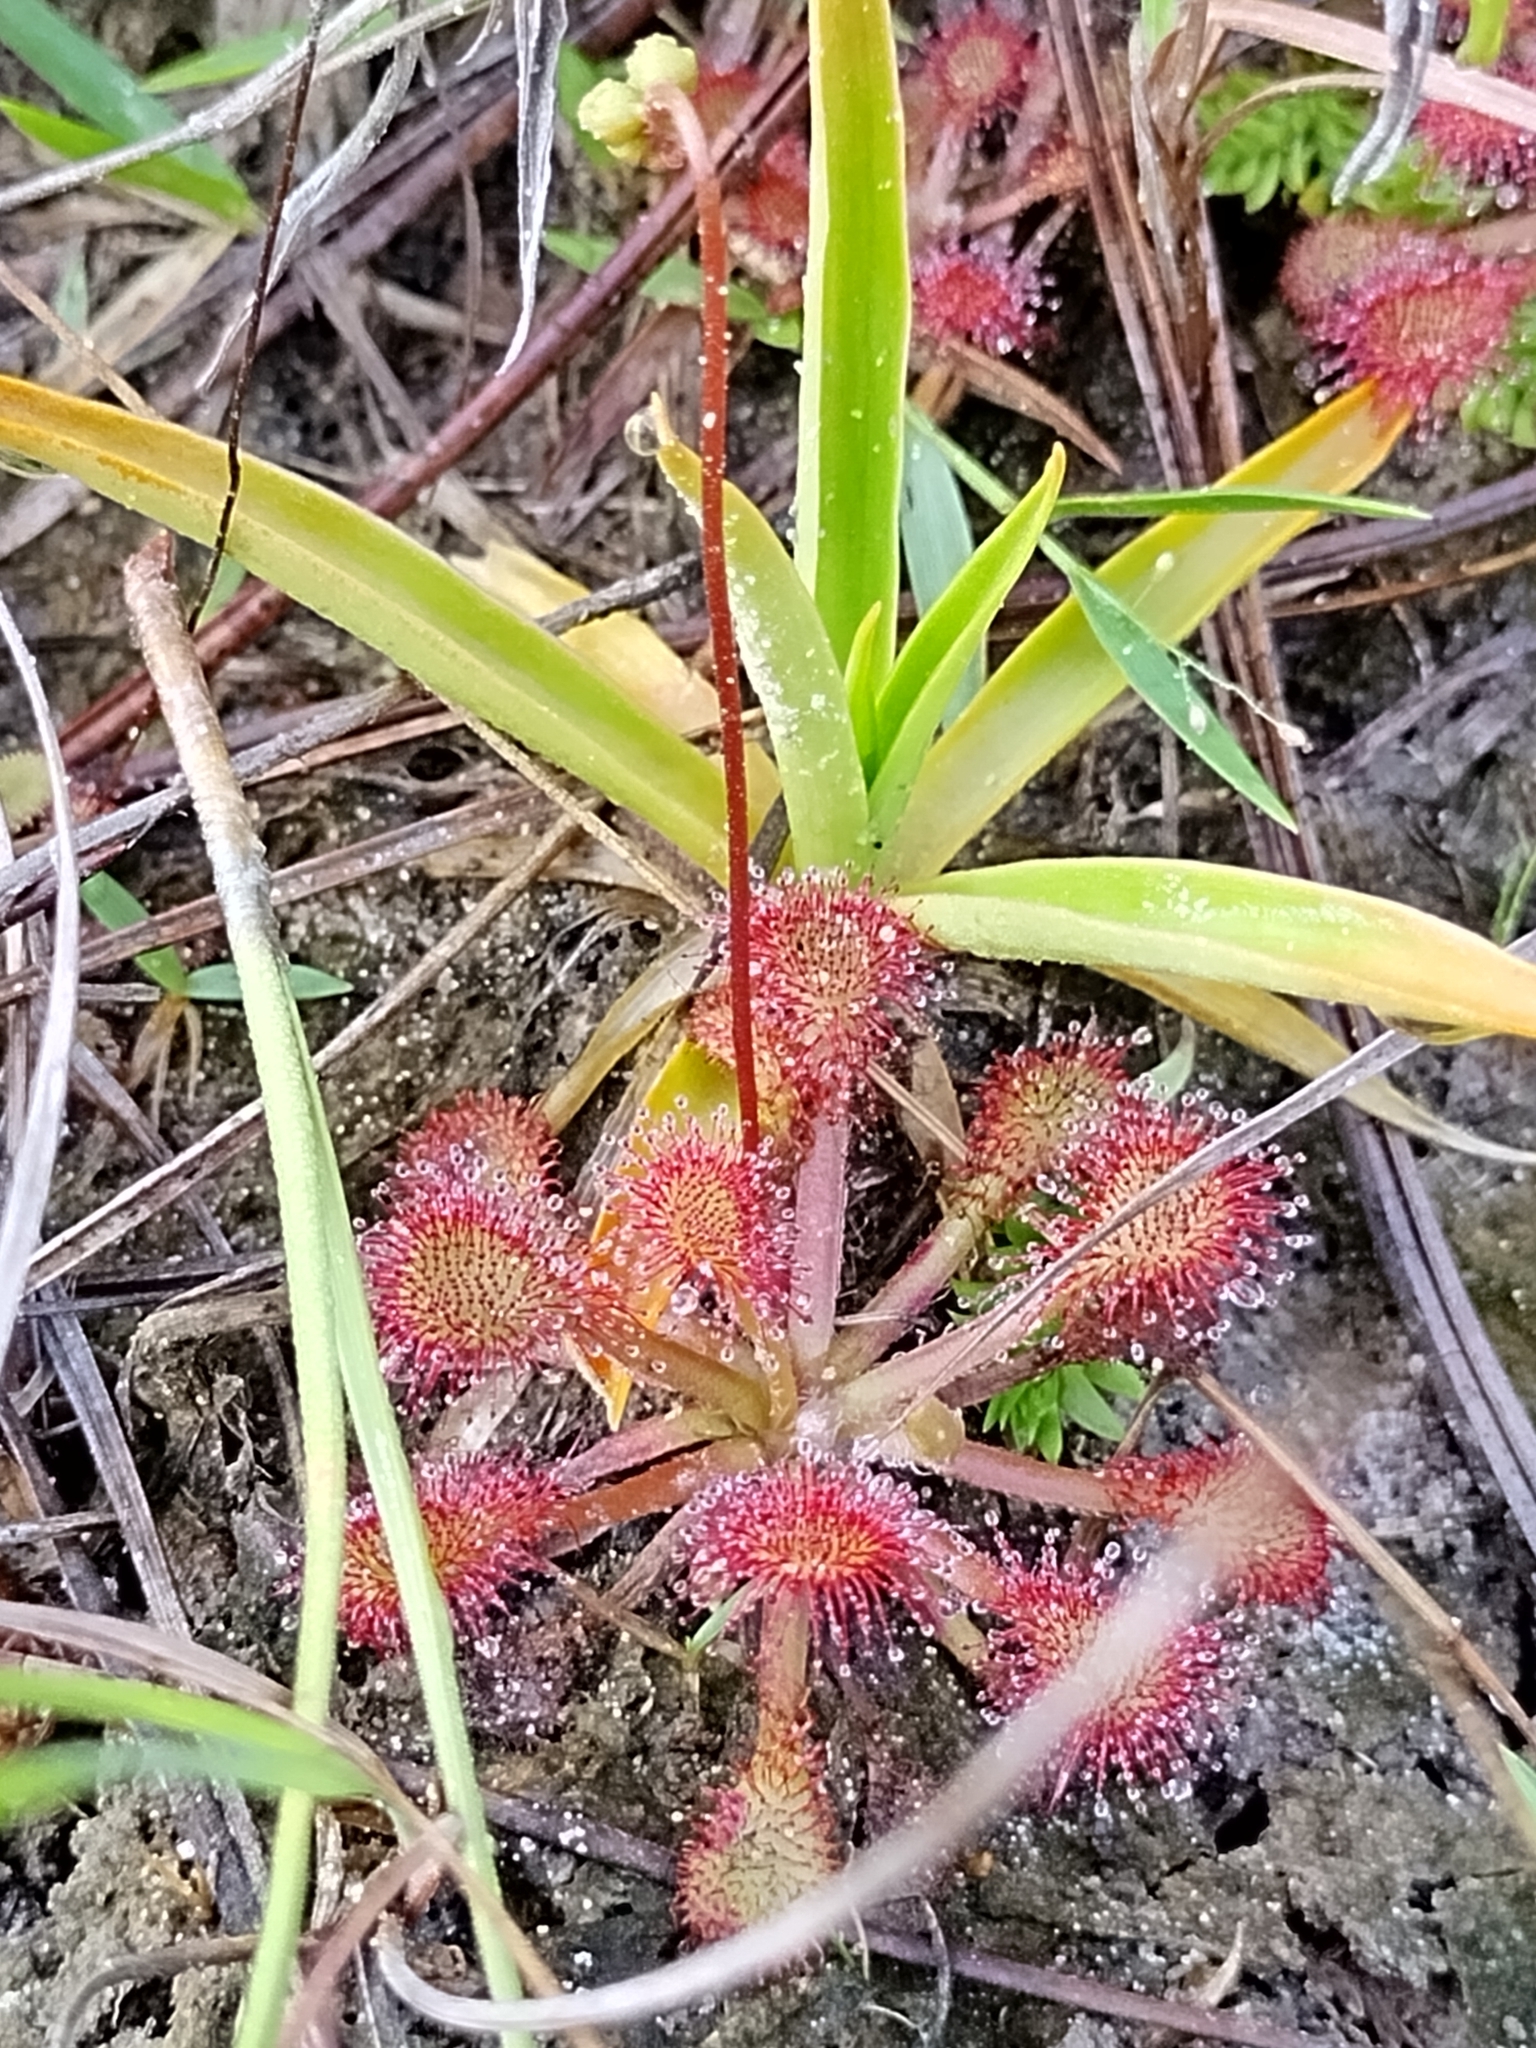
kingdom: Plantae
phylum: Tracheophyta
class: Magnoliopsida
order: Caryophyllales
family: Droseraceae
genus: Drosera
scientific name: Drosera capillaris
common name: Pink sundew
